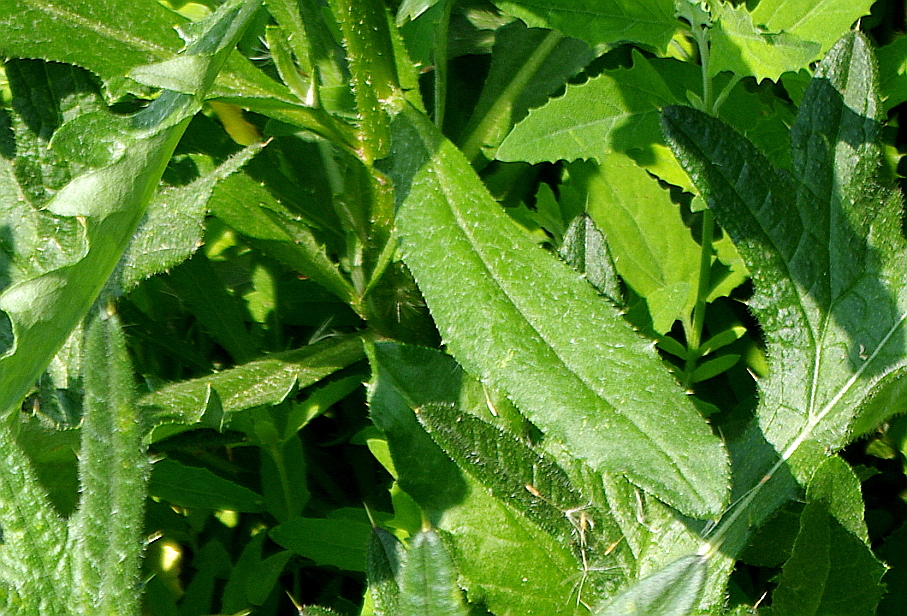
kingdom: Plantae
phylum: Tracheophyta
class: Magnoliopsida
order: Asterales
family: Asteraceae
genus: Cirsium
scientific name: Cirsium arvense
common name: Creeping thistle
